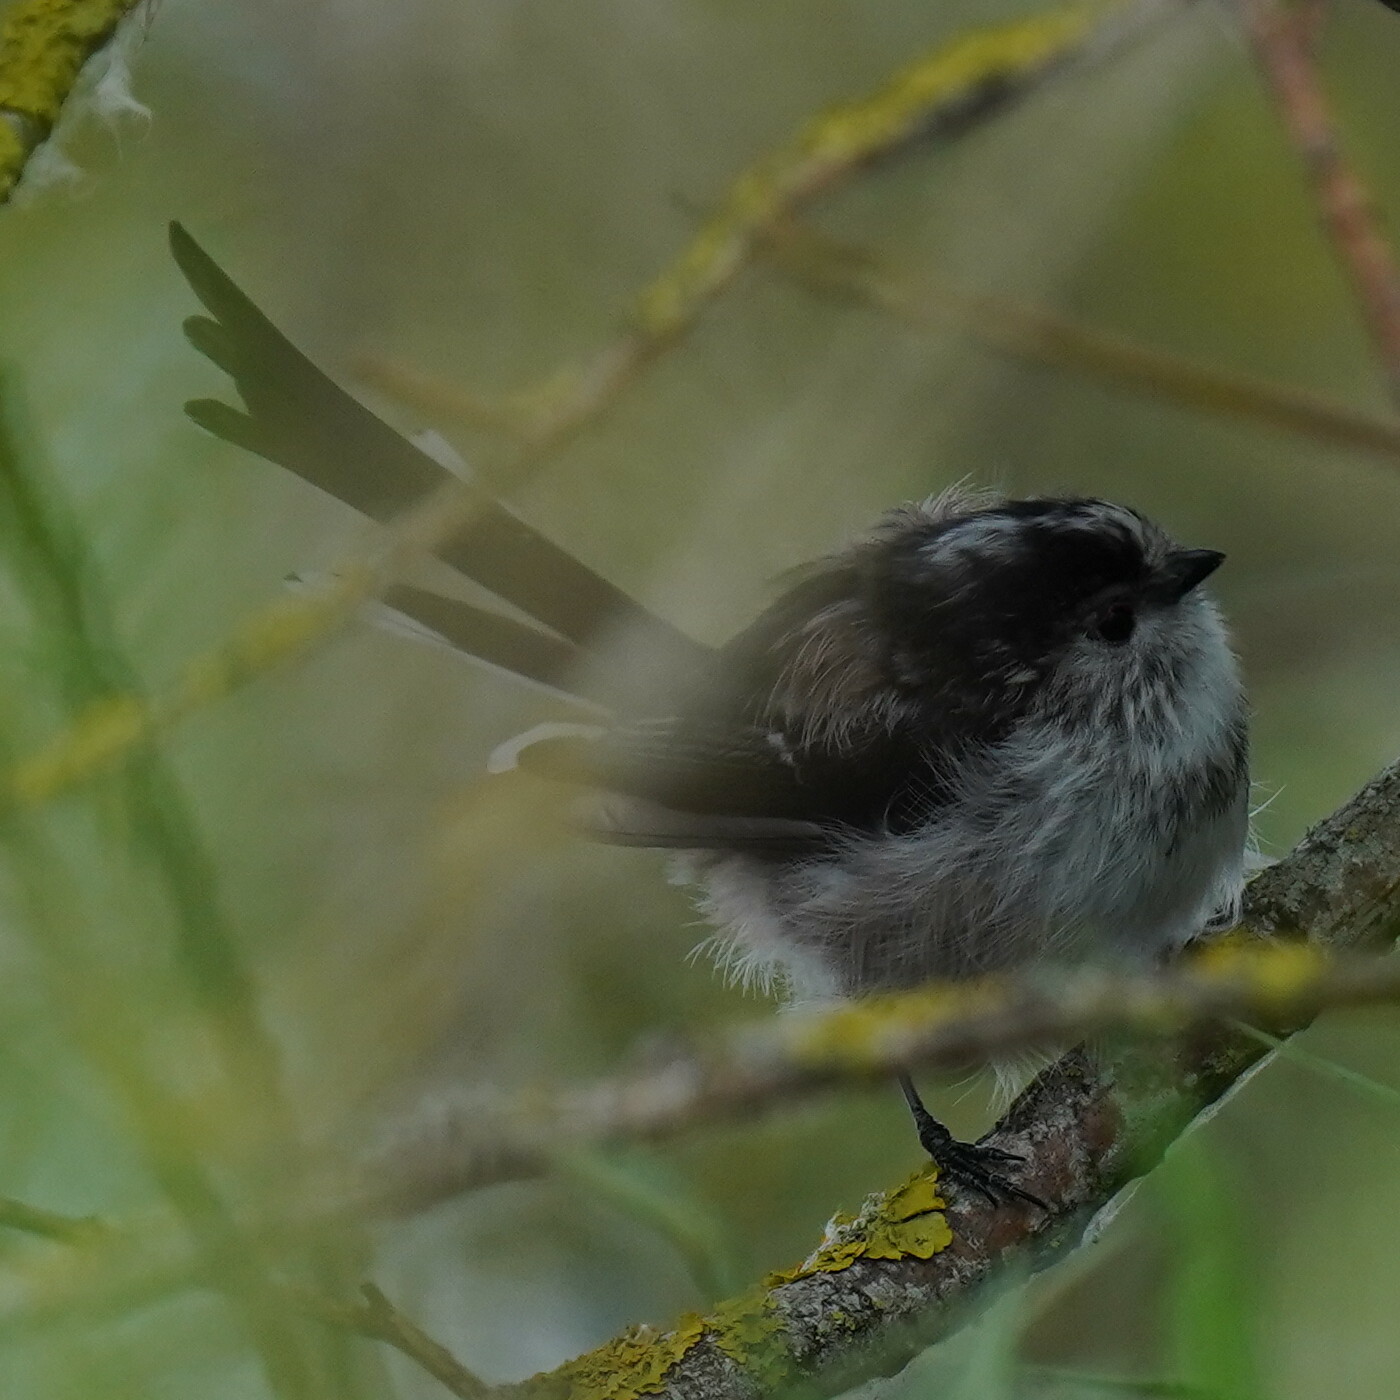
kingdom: Animalia
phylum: Chordata
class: Aves
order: Passeriformes
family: Aegithalidae
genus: Aegithalos
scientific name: Aegithalos caudatus
